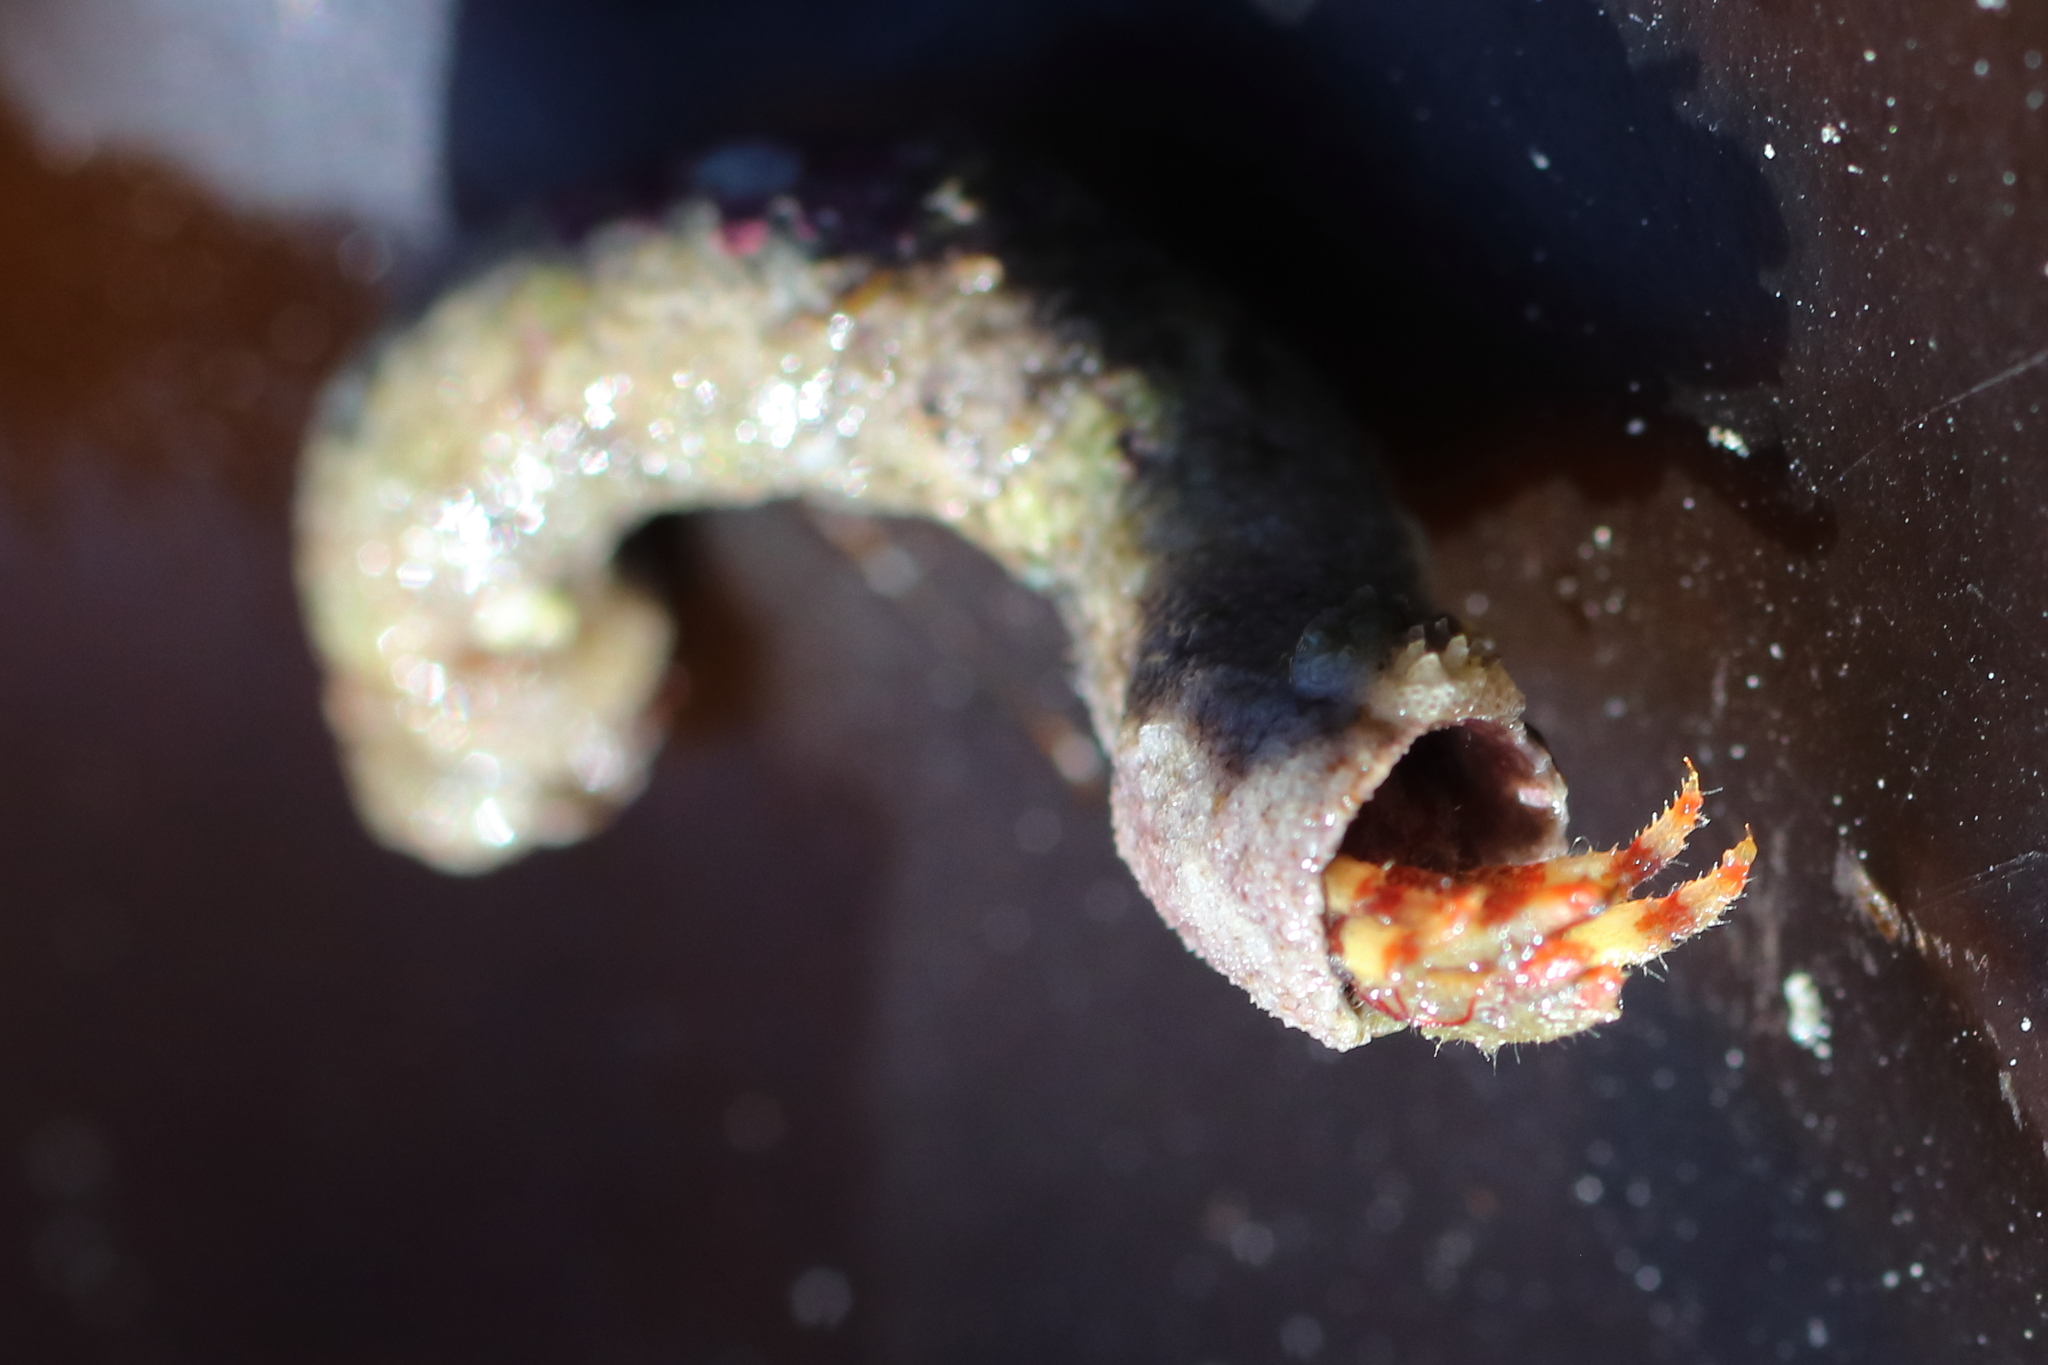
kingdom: Animalia
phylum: Arthropoda
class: Malacostraca
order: Decapoda
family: Paguridae
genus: Discorsopagurus
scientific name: Discorsopagurus schmitti
